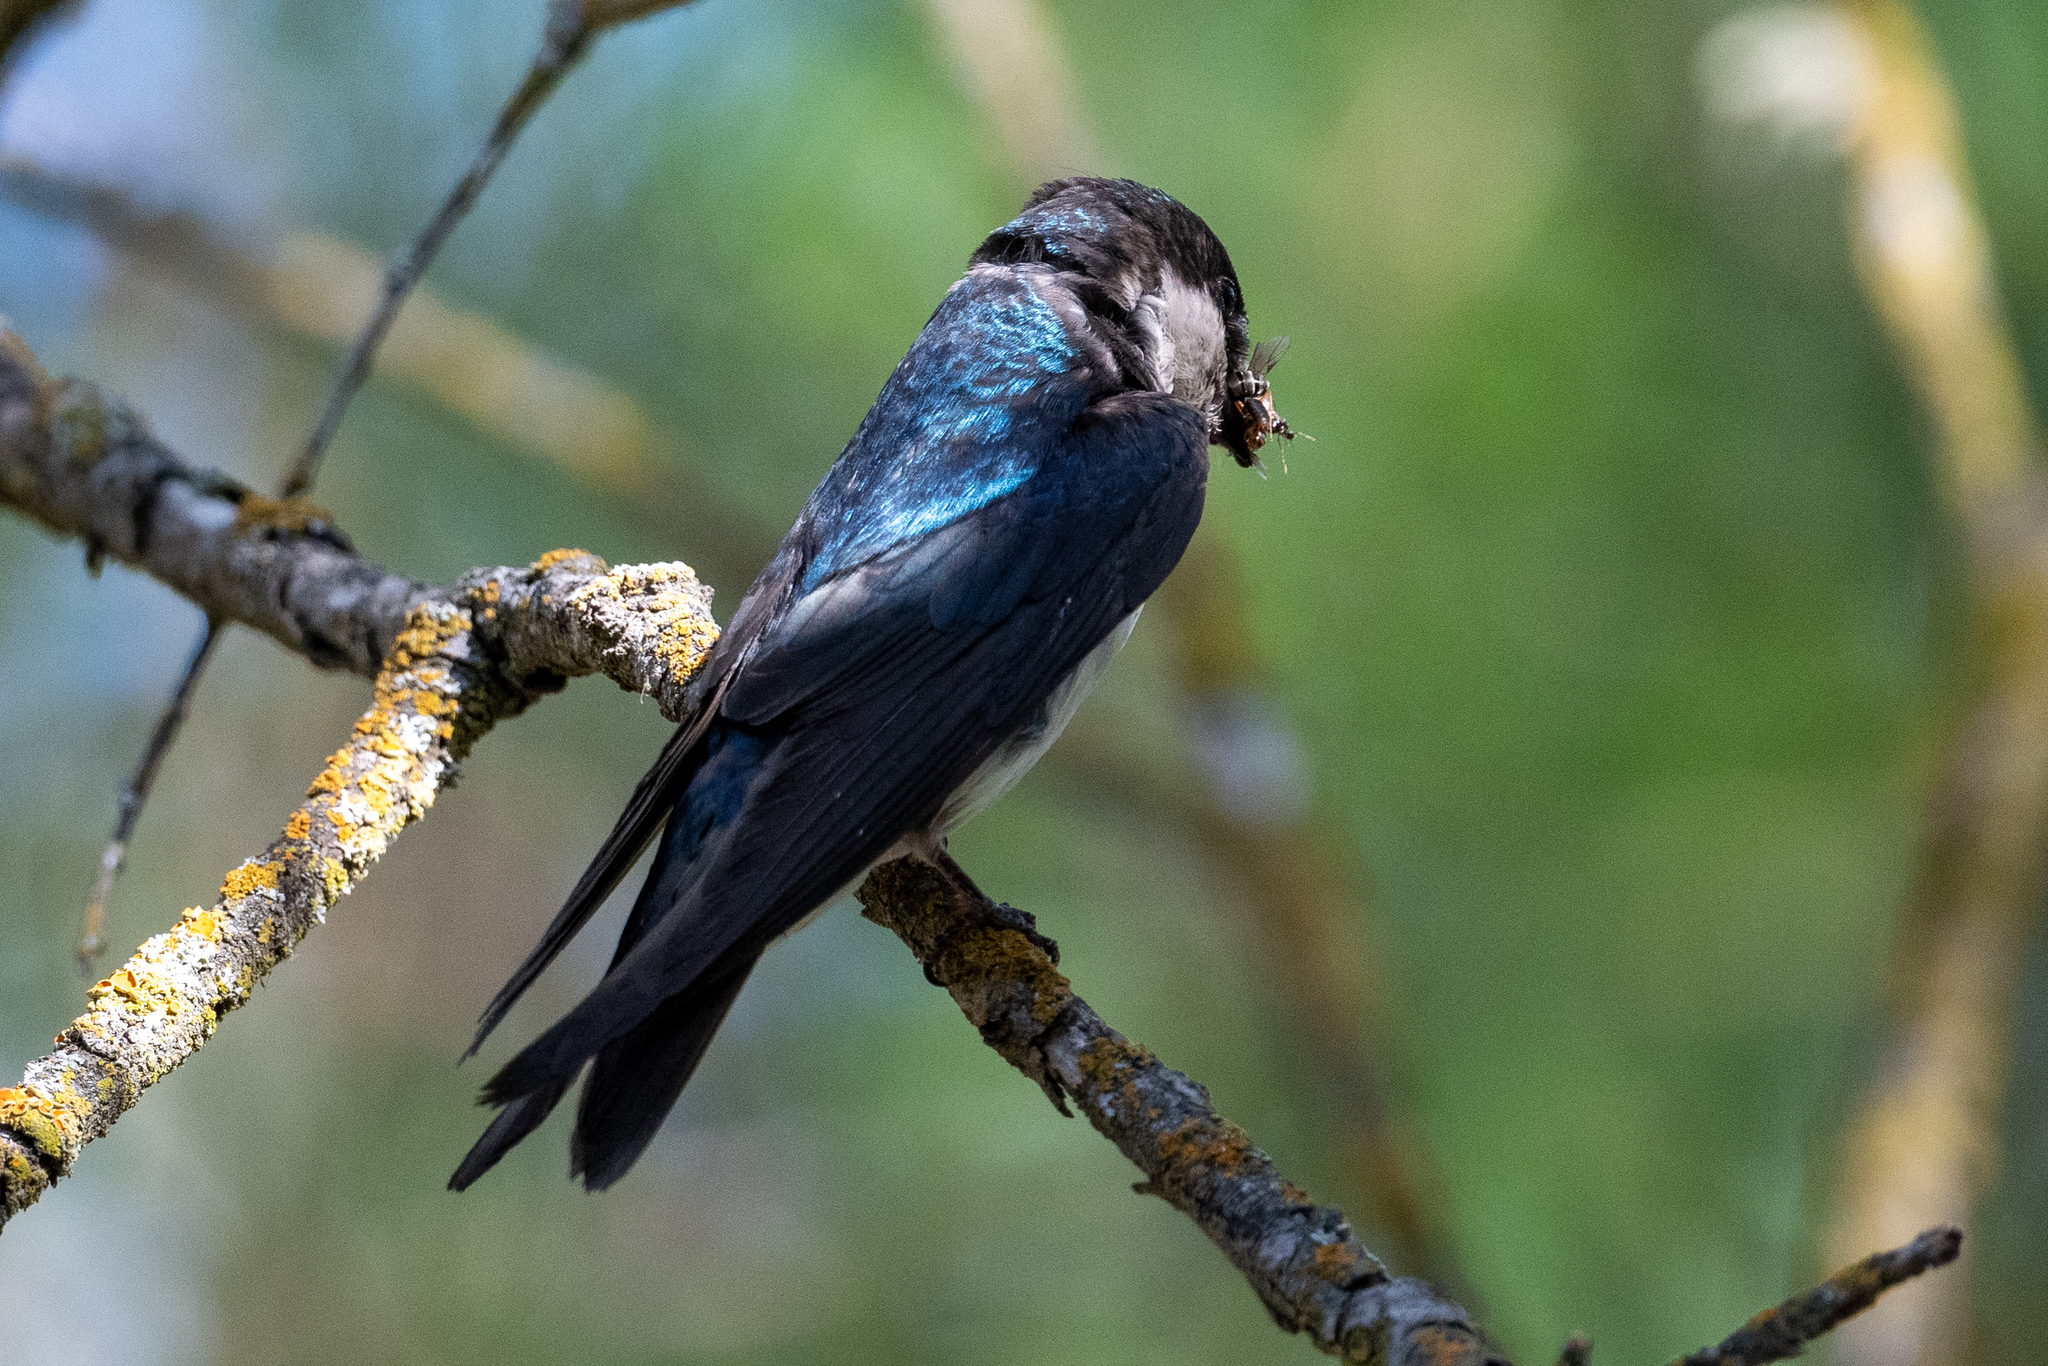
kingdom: Animalia
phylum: Chordata
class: Aves
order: Passeriformes
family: Hirundinidae
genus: Tachycineta
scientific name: Tachycineta bicolor
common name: Tree swallow
